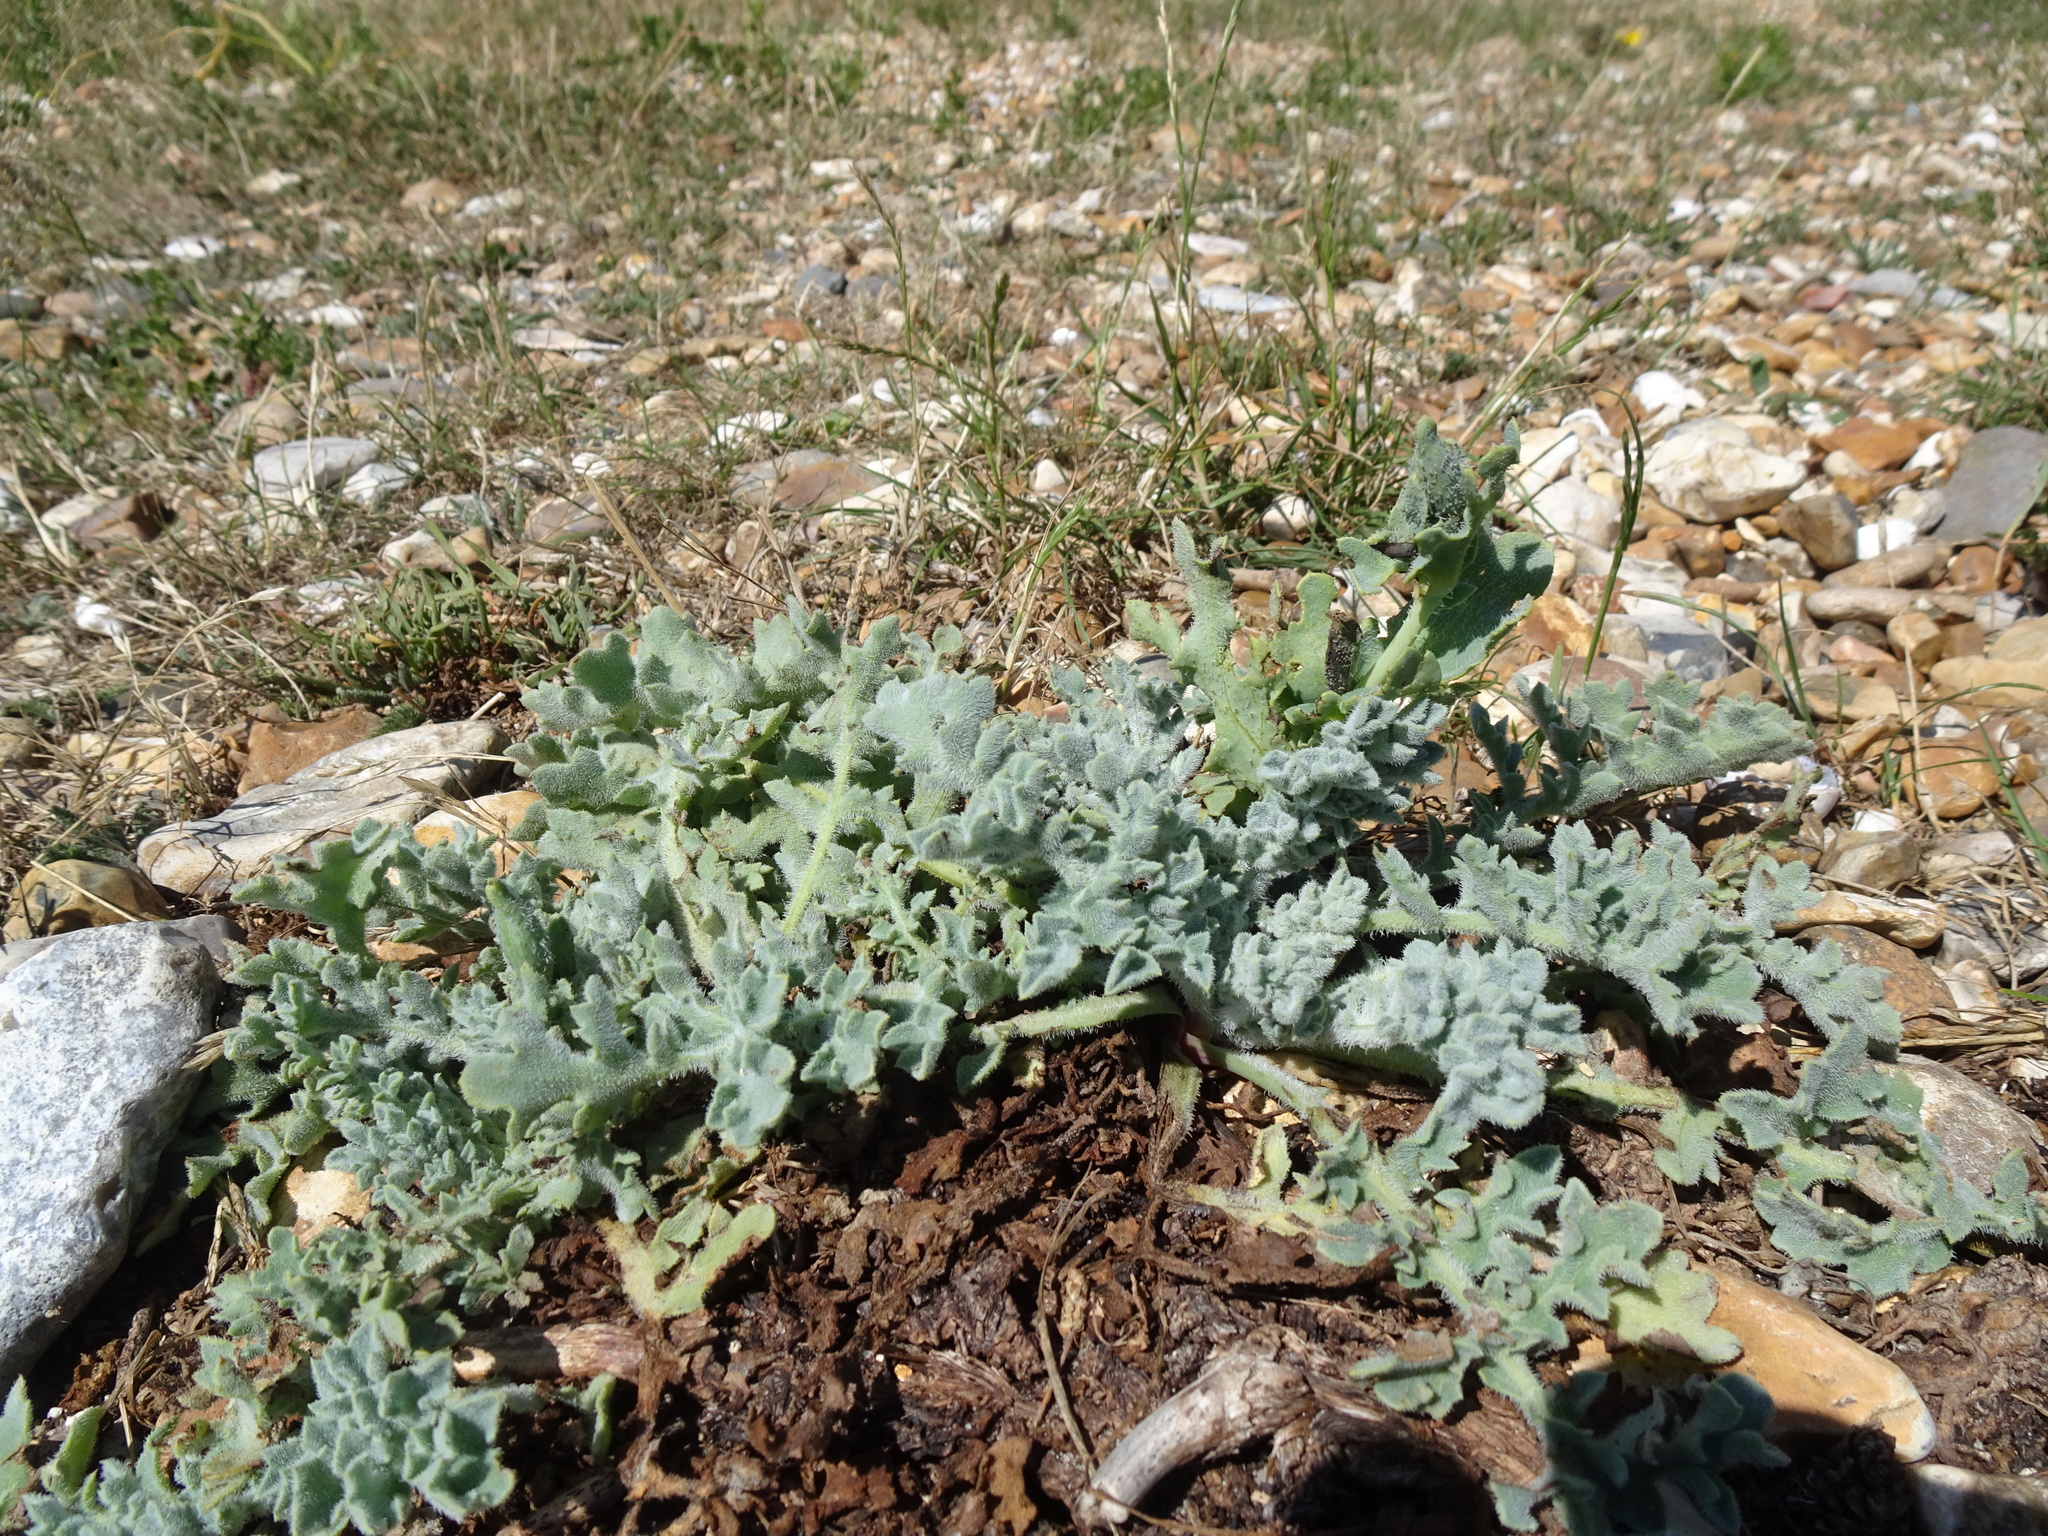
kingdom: Plantae
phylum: Tracheophyta
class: Magnoliopsida
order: Ranunculales
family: Papaveraceae
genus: Glaucium
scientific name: Glaucium flavum
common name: Yellow horned-poppy
